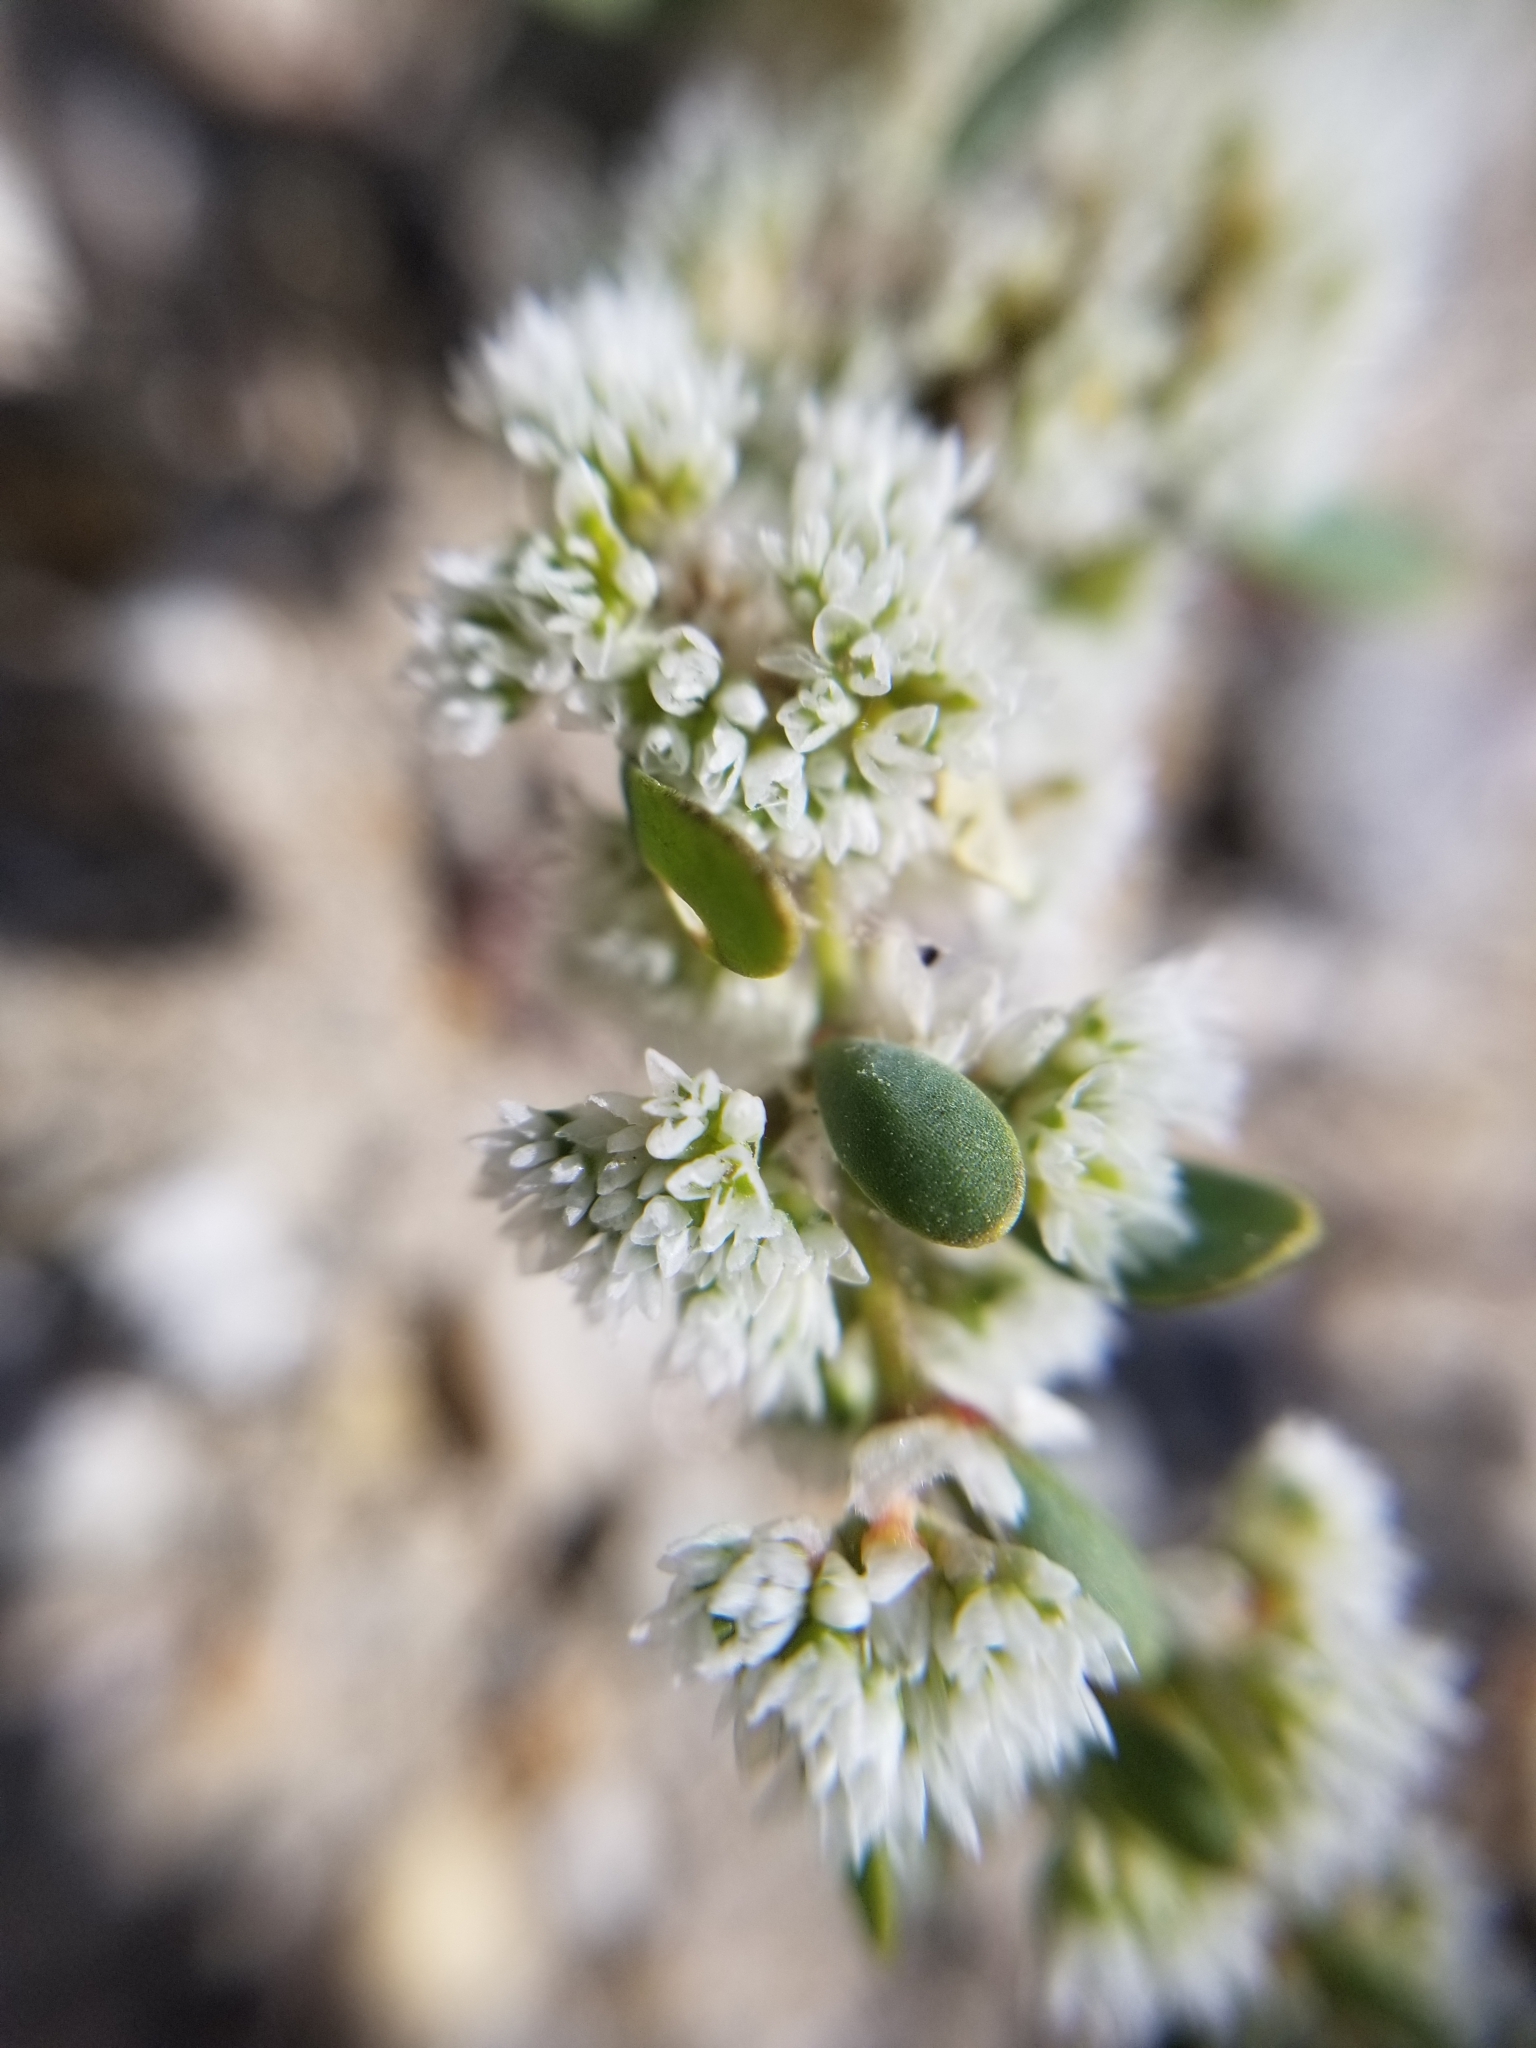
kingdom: Plantae
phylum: Tracheophyta
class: Magnoliopsida
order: Caryophyllales
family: Caryophyllaceae
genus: Achyronychia
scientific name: Achyronychia cooperi
